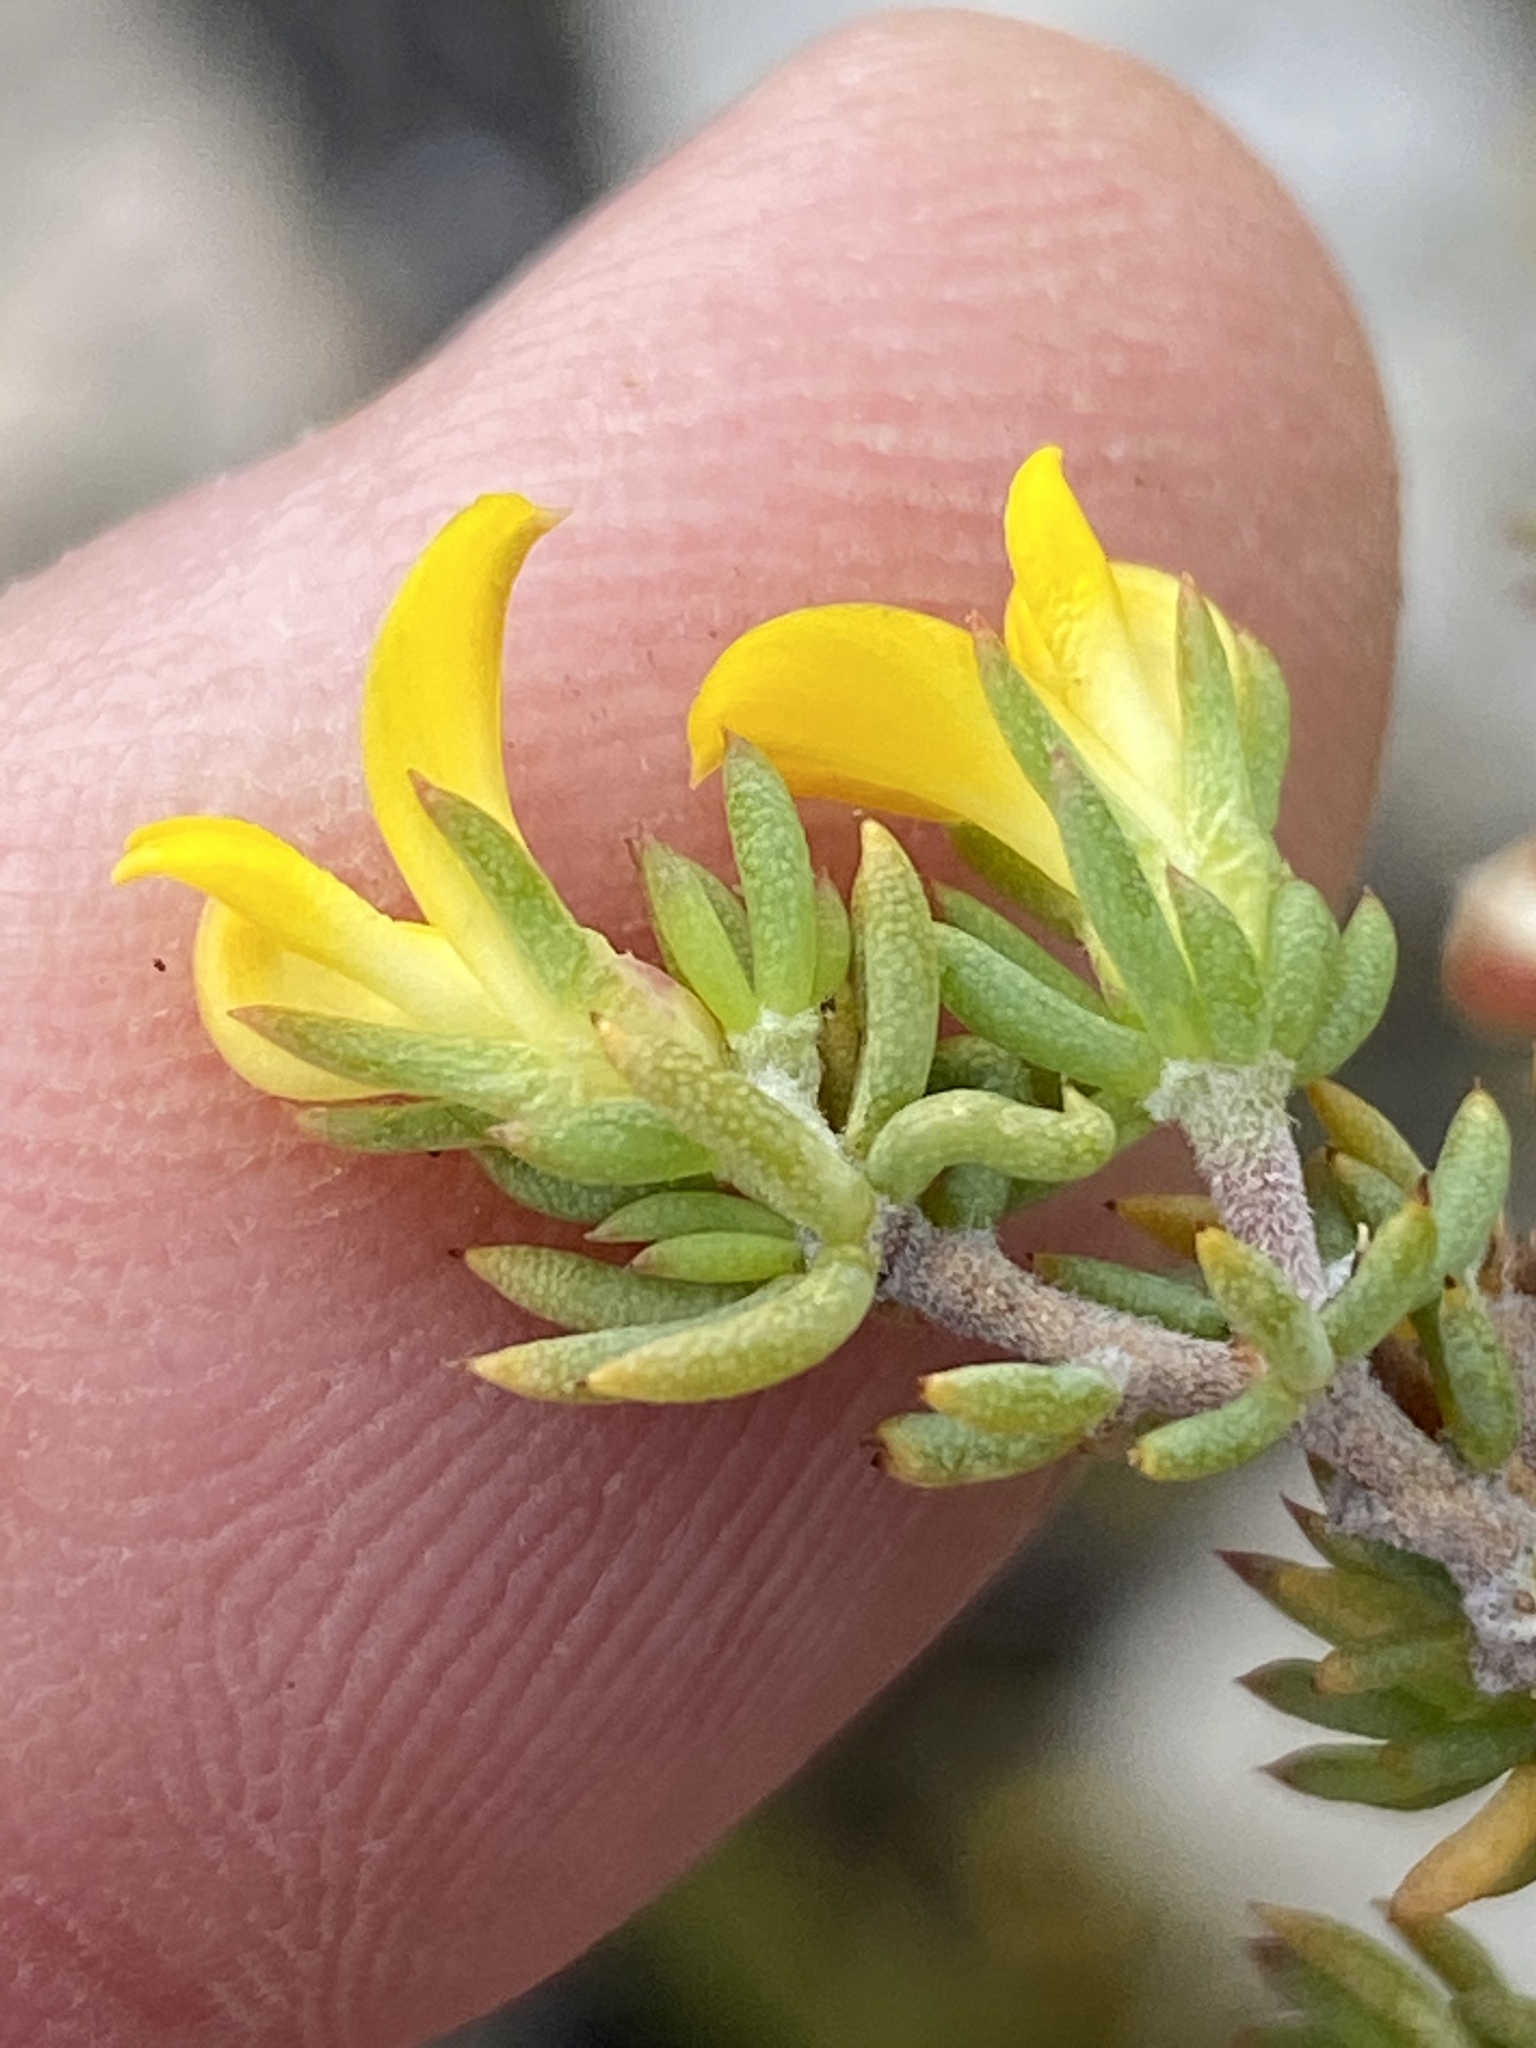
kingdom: Plantae
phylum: Tracheophyta
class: Magnoliopsida
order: Fabales
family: Fabaceae
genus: Aspalathus
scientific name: Aspalathus juniperina
